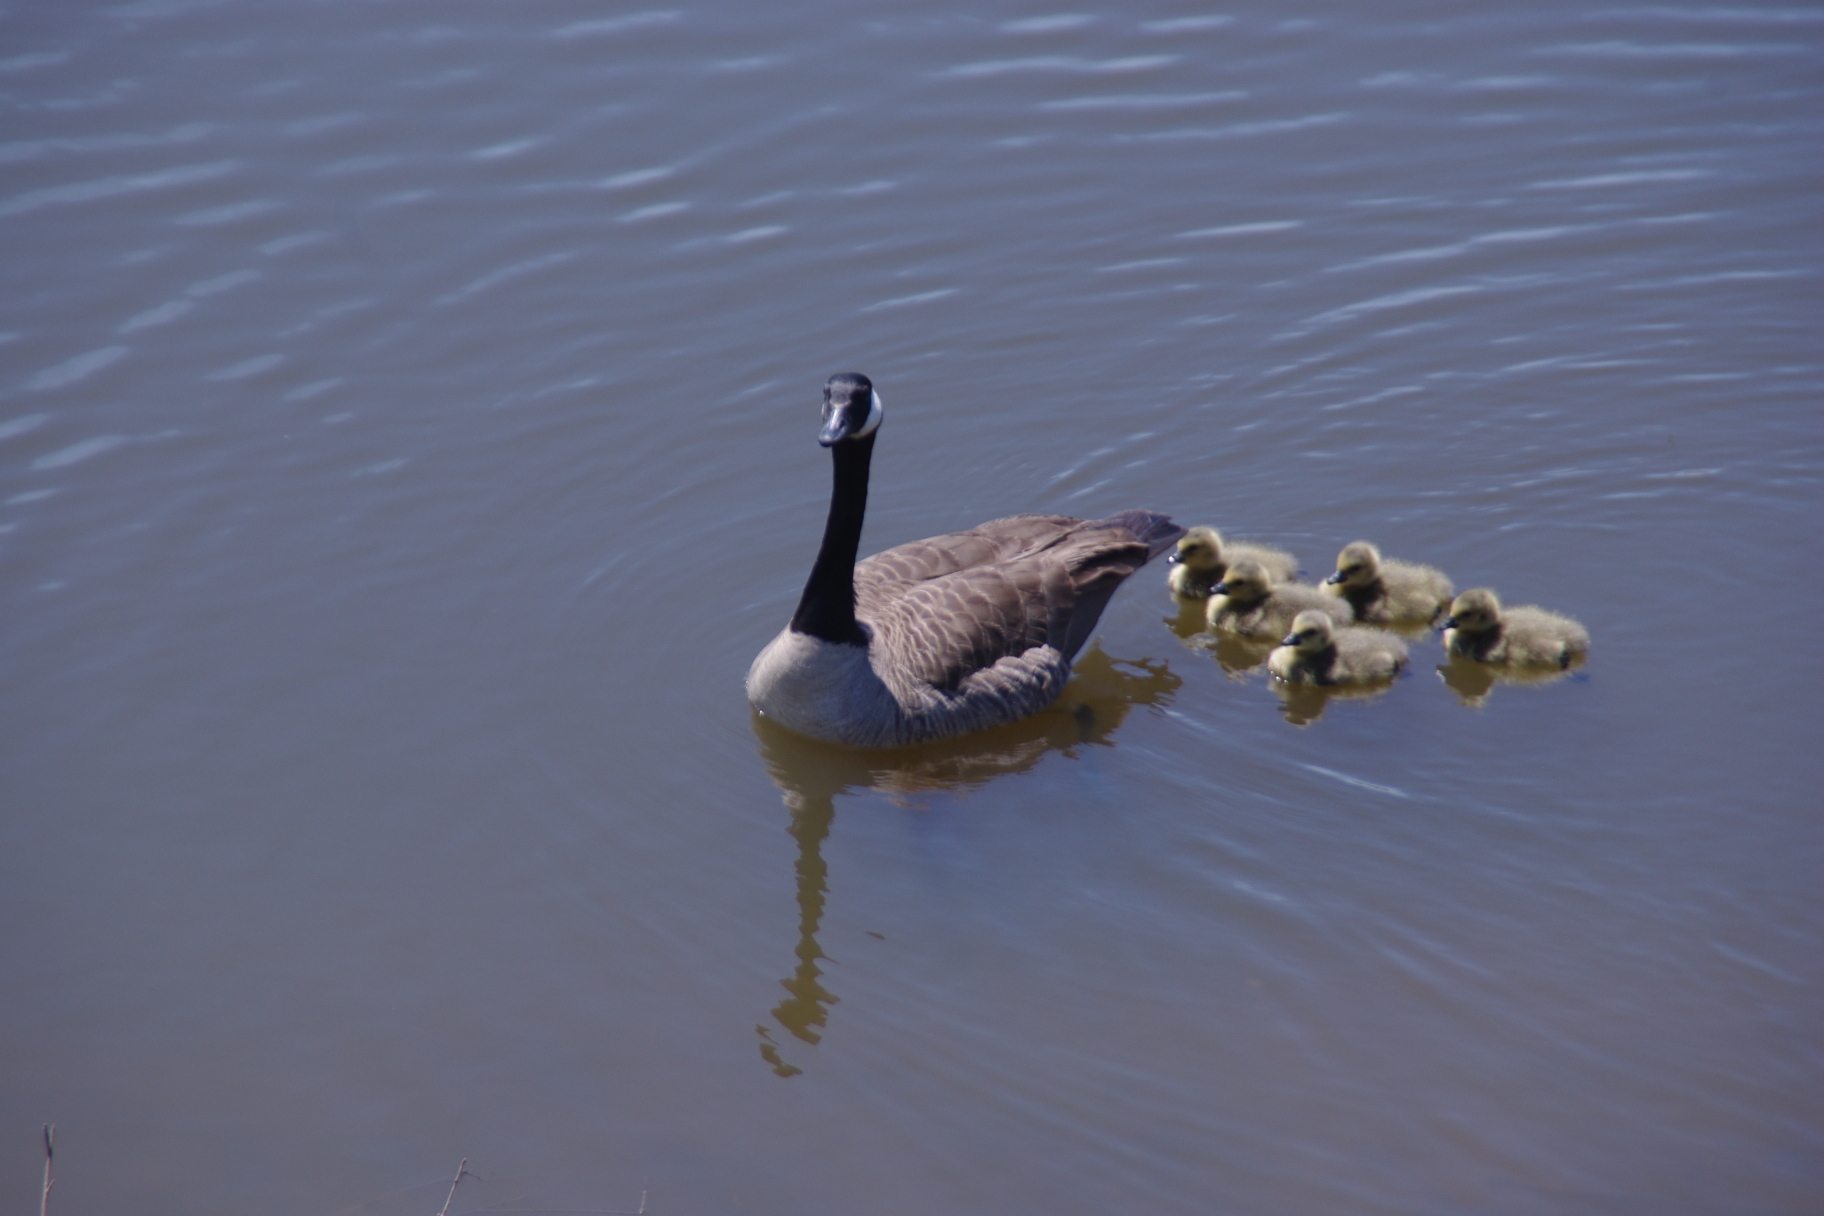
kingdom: Animalia
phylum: Chordata
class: Aves
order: Anseriformes
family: Anatidae
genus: Branta
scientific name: Branta canadensis
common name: Canada goose
